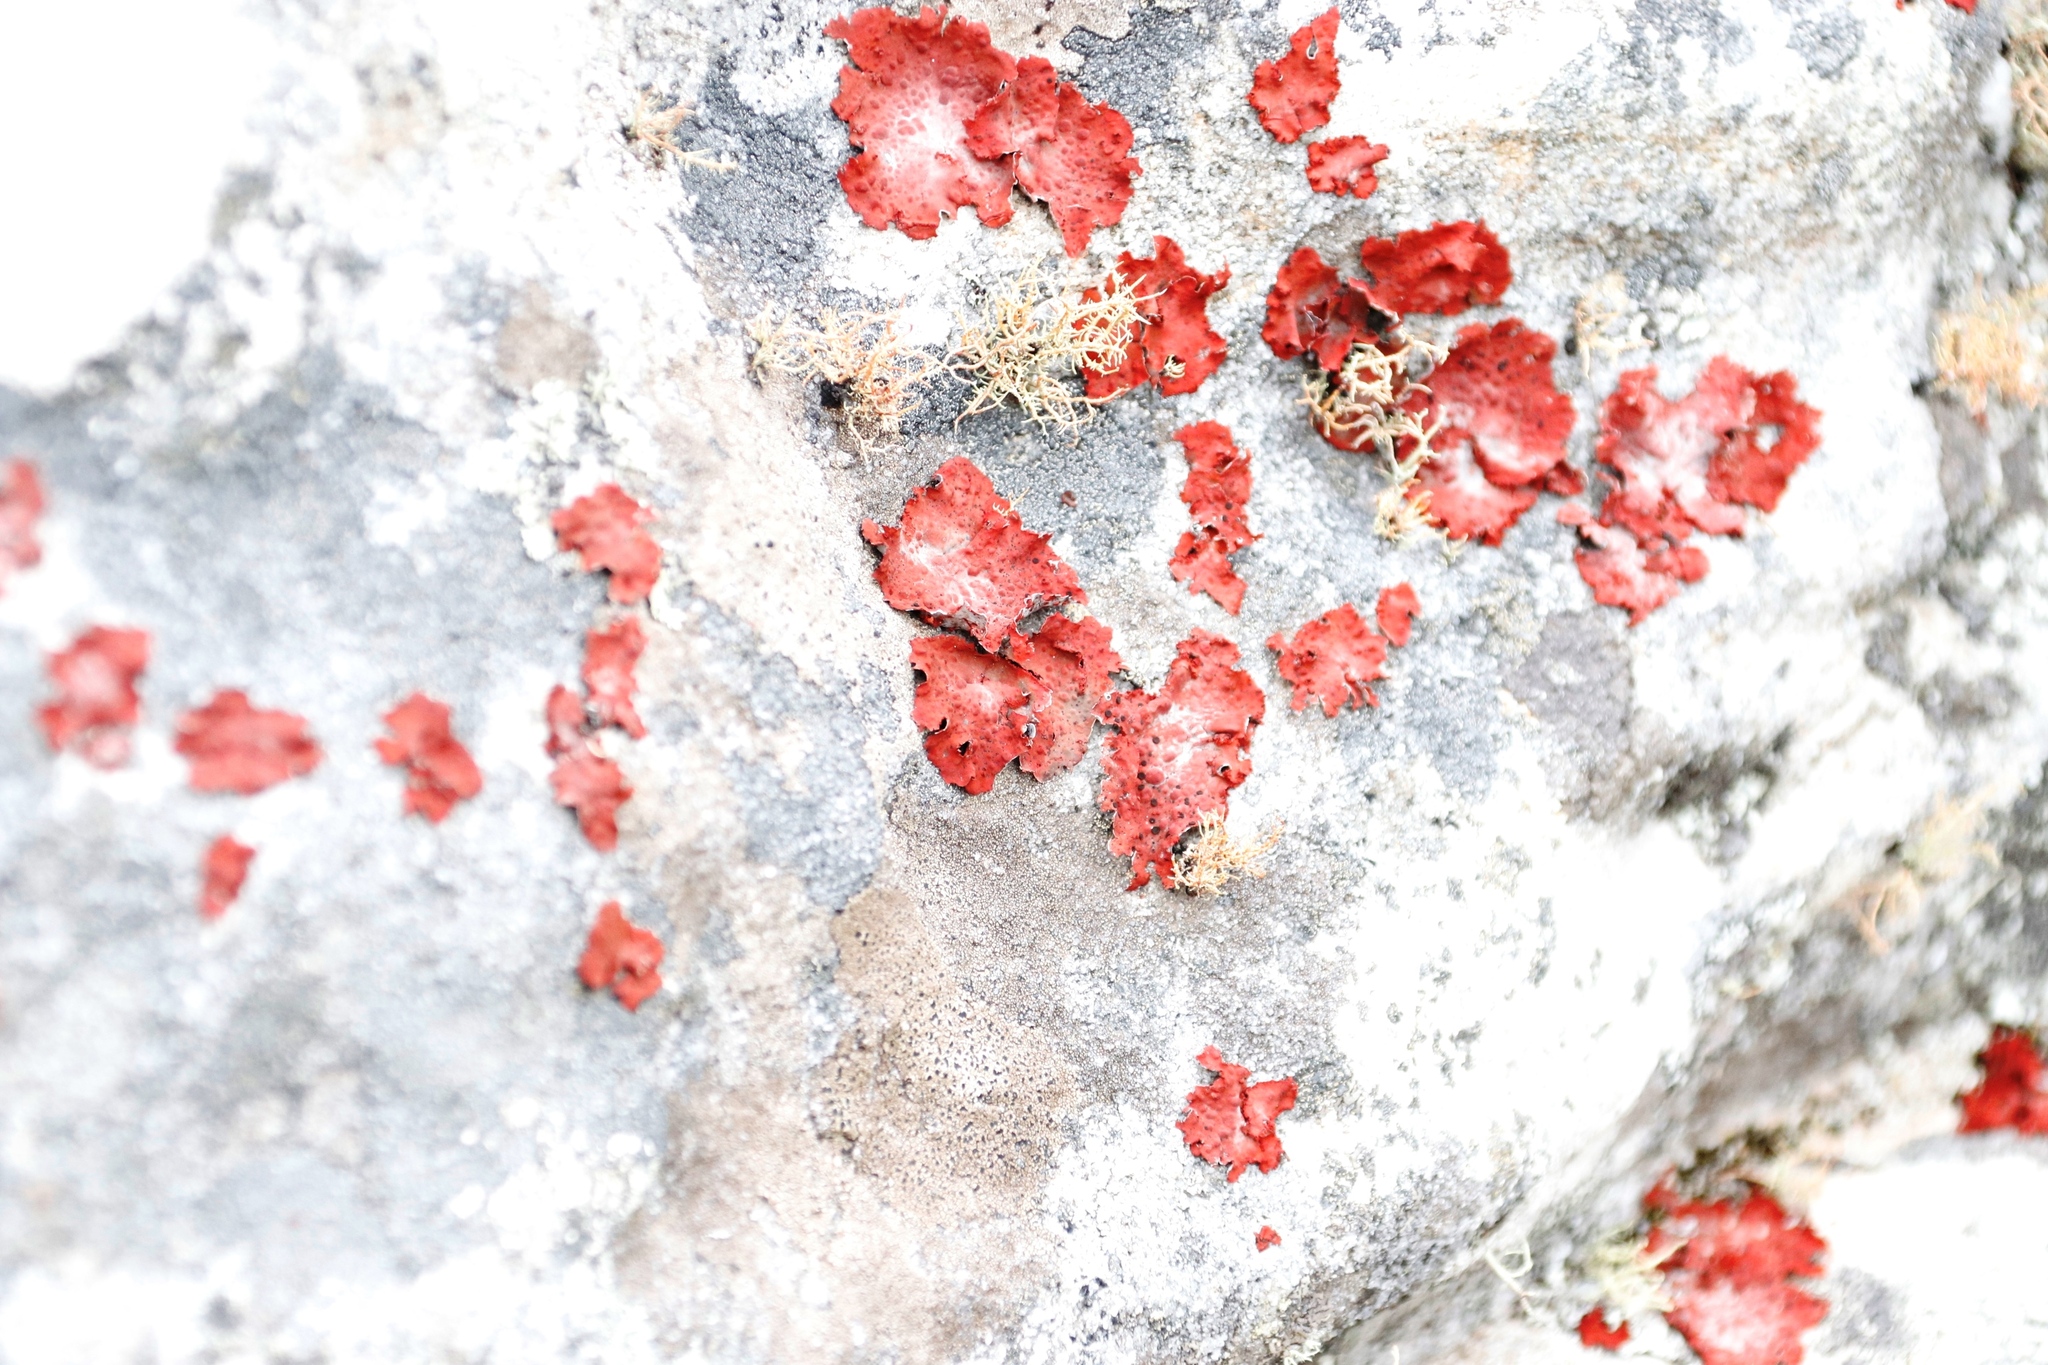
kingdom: Fungi
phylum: Ascomycota
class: Lecanoromycetes
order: Umbilicariales
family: Umbilicariaceae
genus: Lasallia
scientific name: Lasallia rubiginosa
